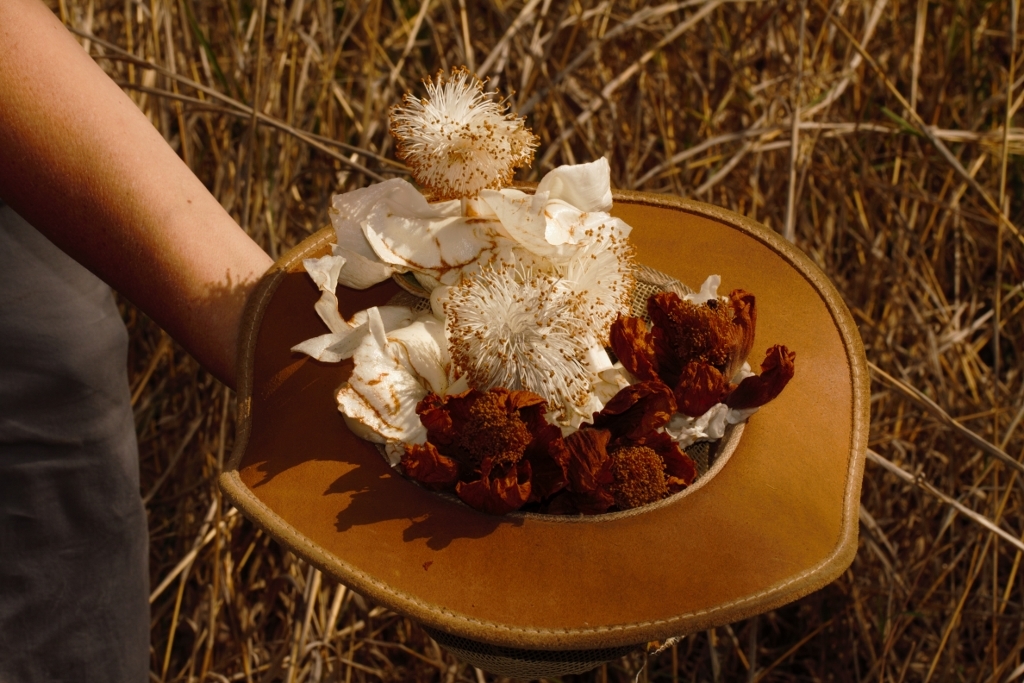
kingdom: Plantae
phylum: Tracheophyta
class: Magnoliopsida
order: Malvales
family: Malvaceae
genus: Adansonia
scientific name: Adansonia digitata
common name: Dead-rat-tree
